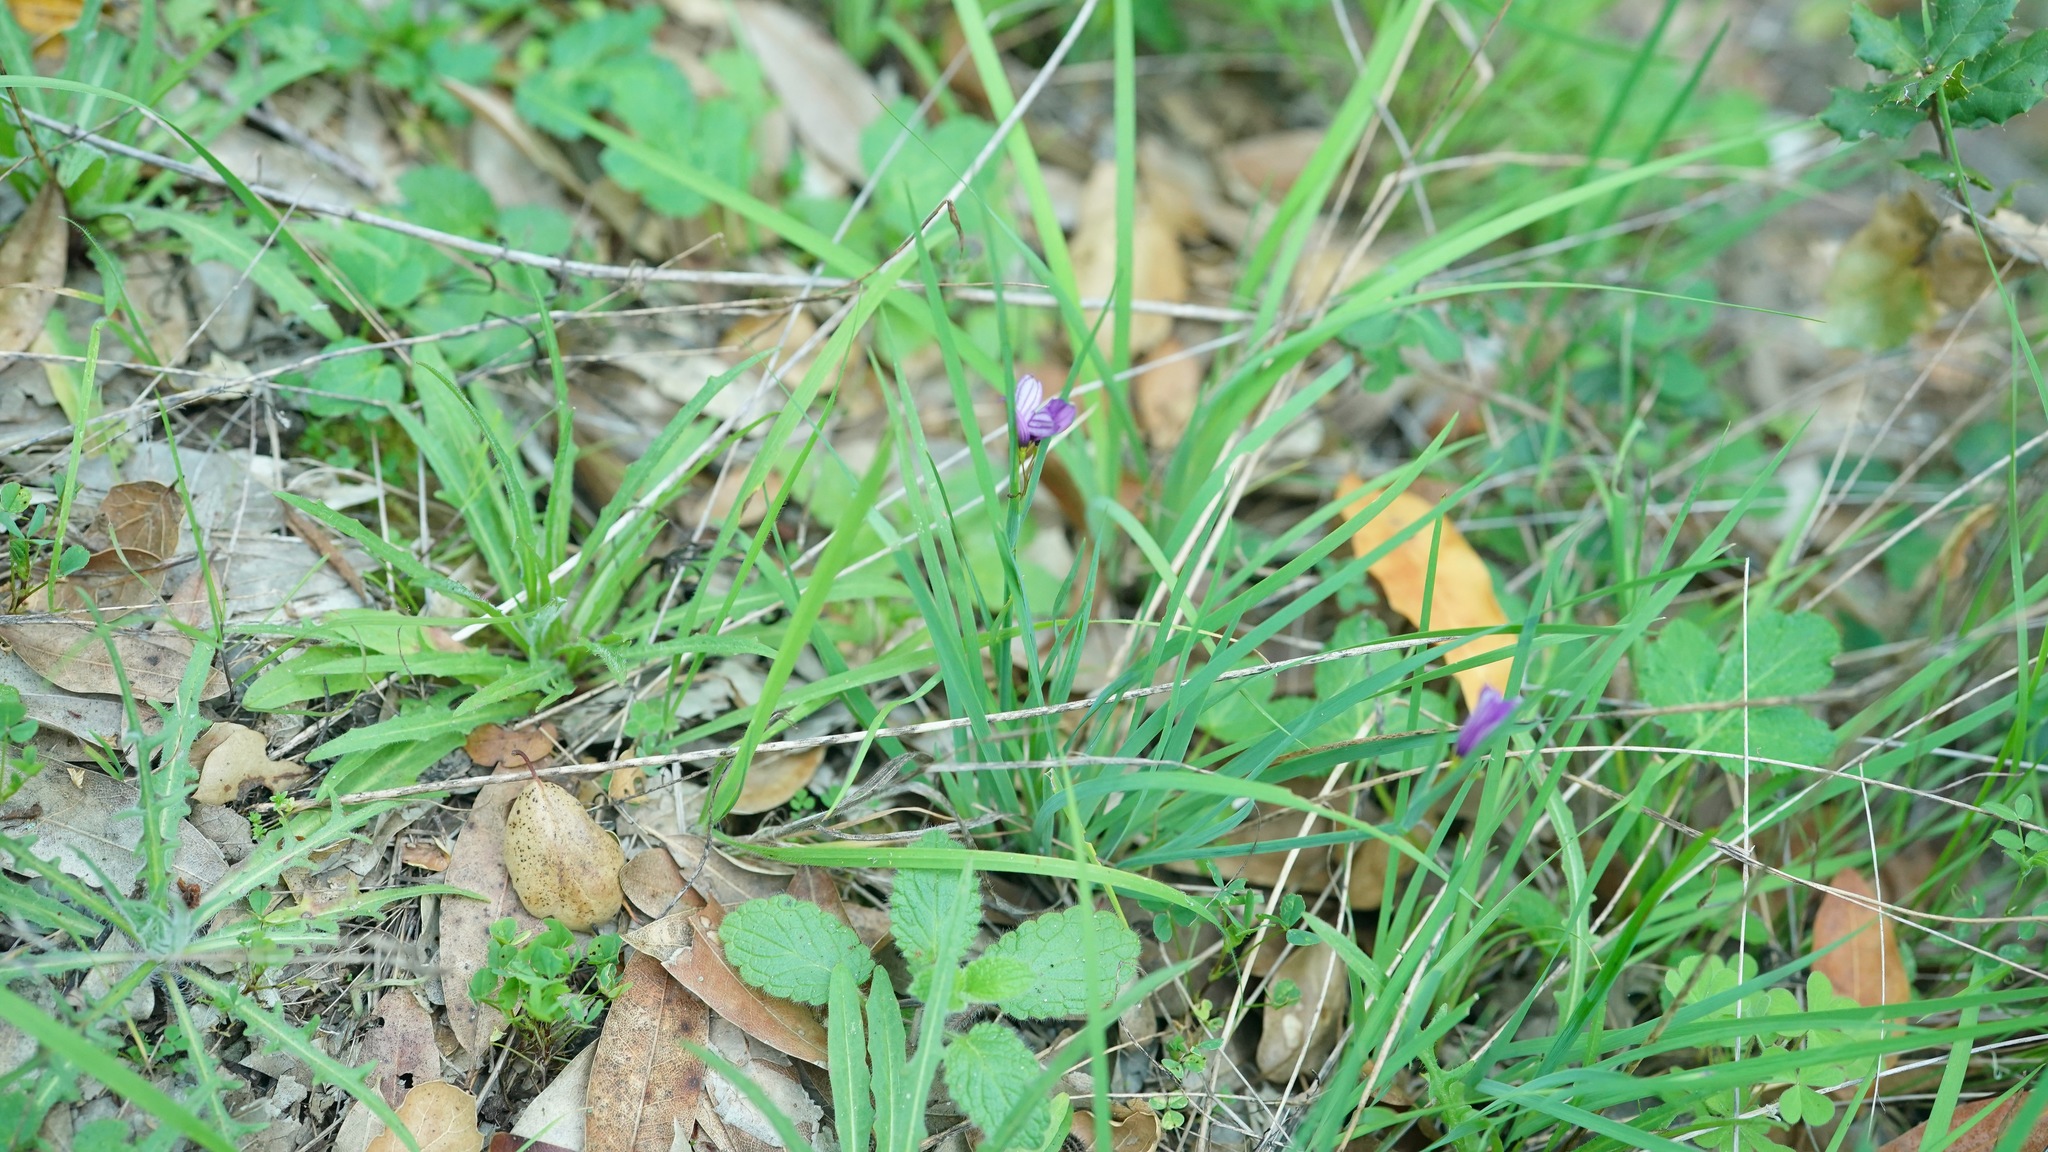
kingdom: Plantae
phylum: Tracheophyta
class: Liliopsida
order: Asparagales
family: Iridaceae
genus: Sisyrinchium
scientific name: Sisyrinchium bellum
